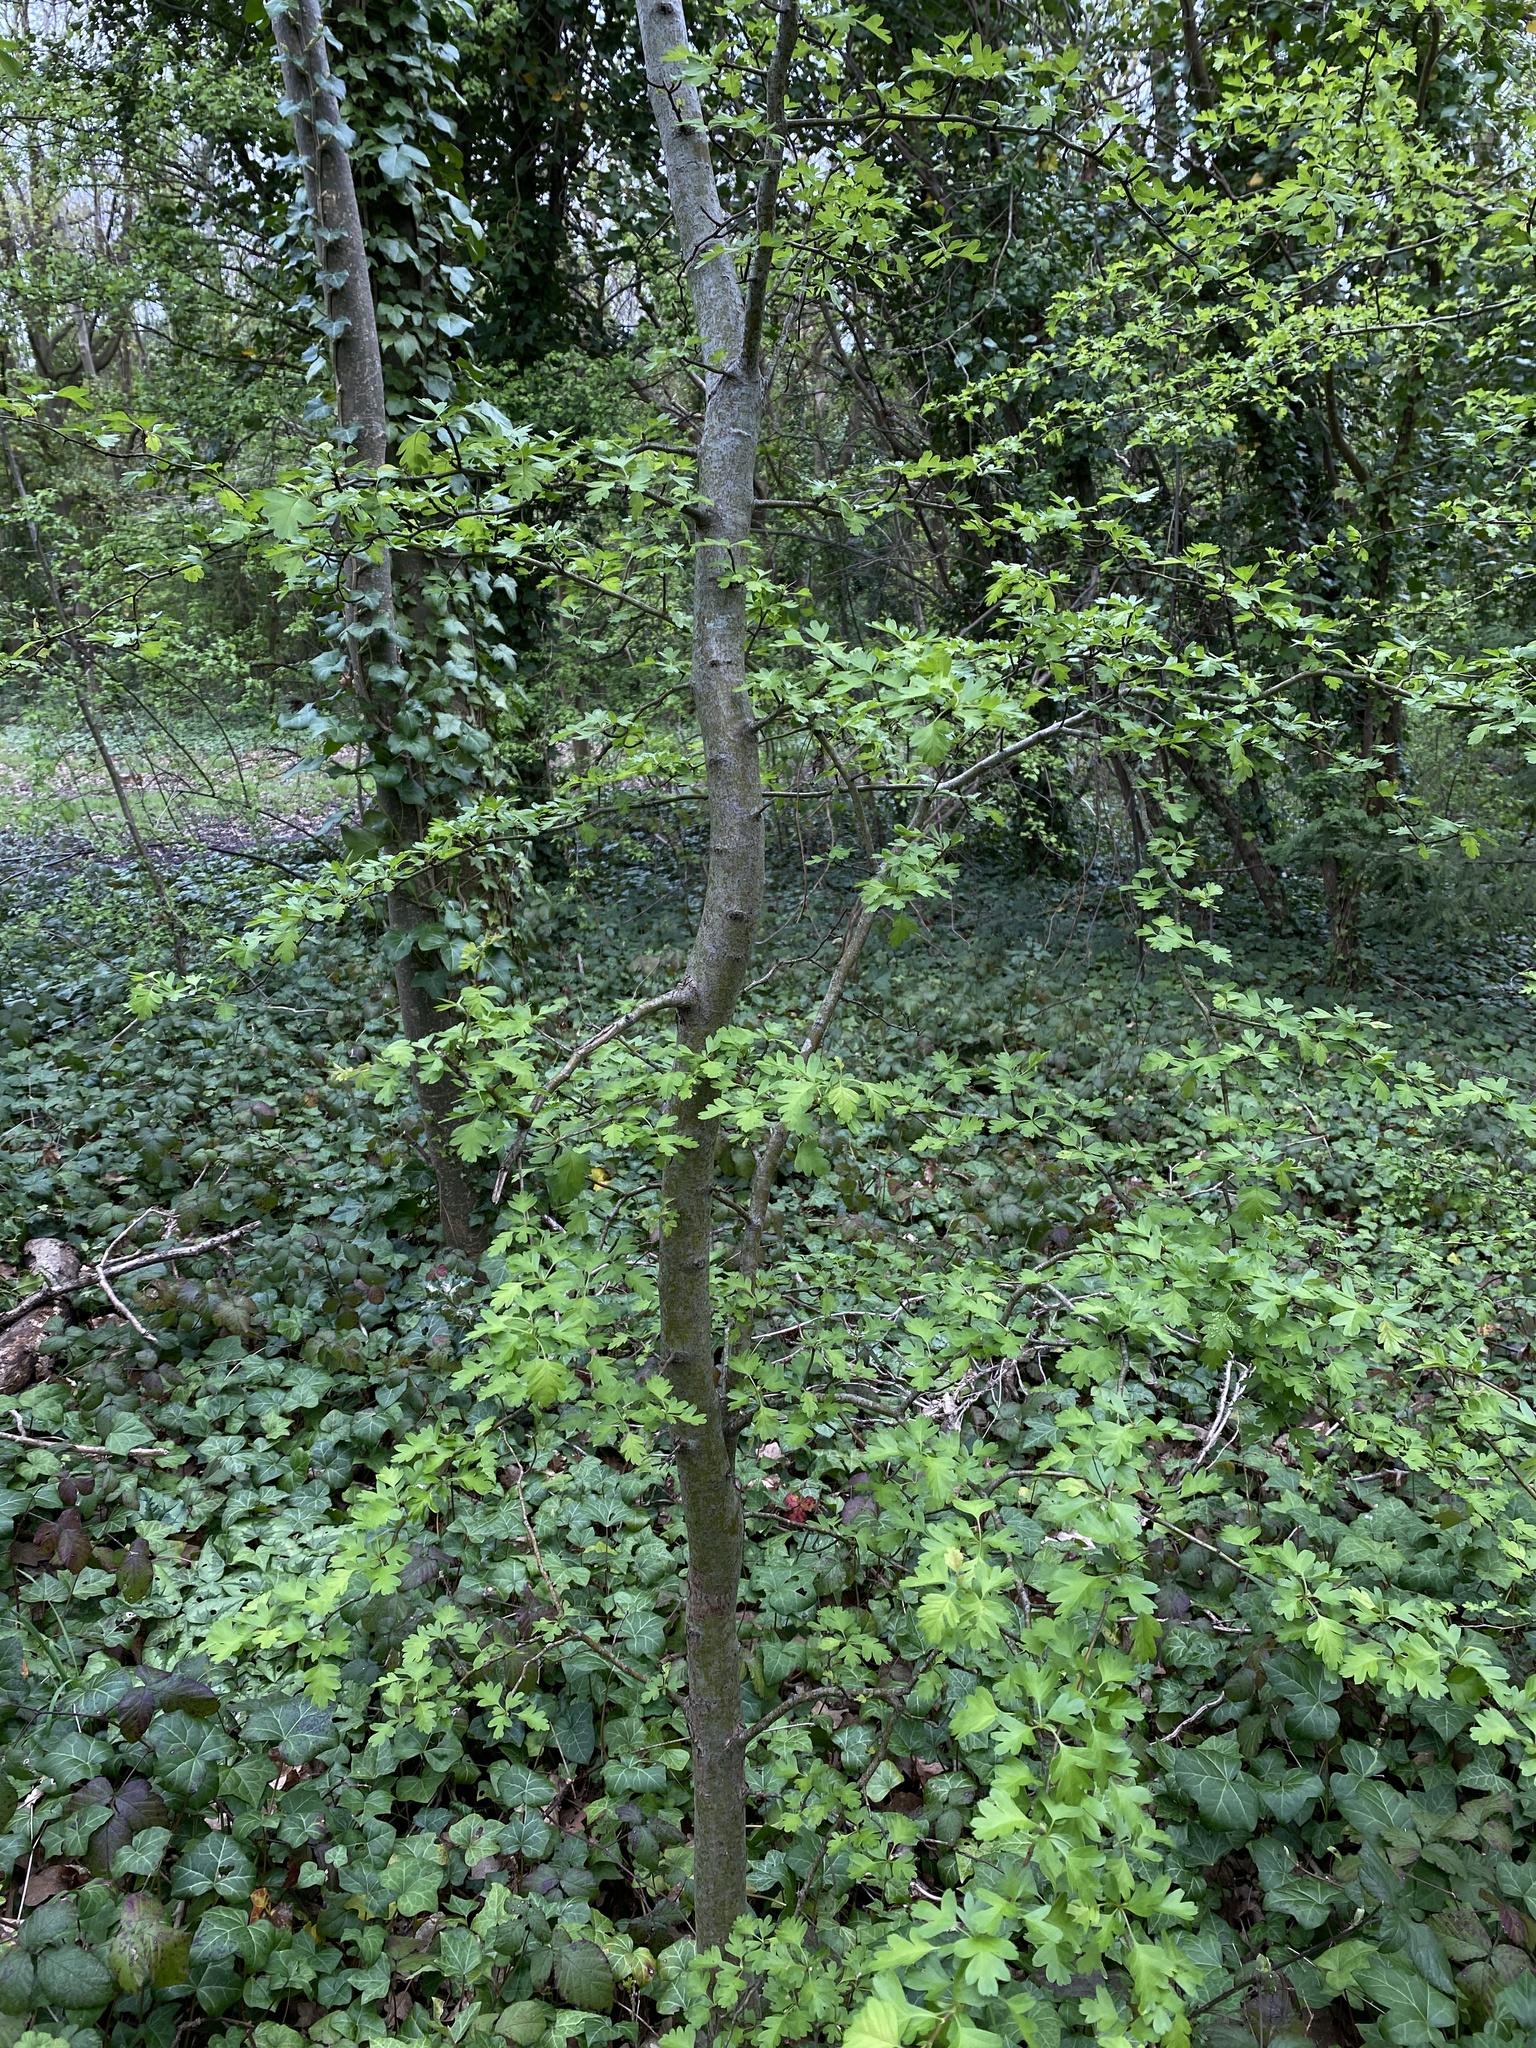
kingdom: Plantae
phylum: Tracheophyta
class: Magnoliopsida
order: Rosales
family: Rosaceae
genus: Crataegus
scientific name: Crataegus monogyna
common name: Hawthorn
